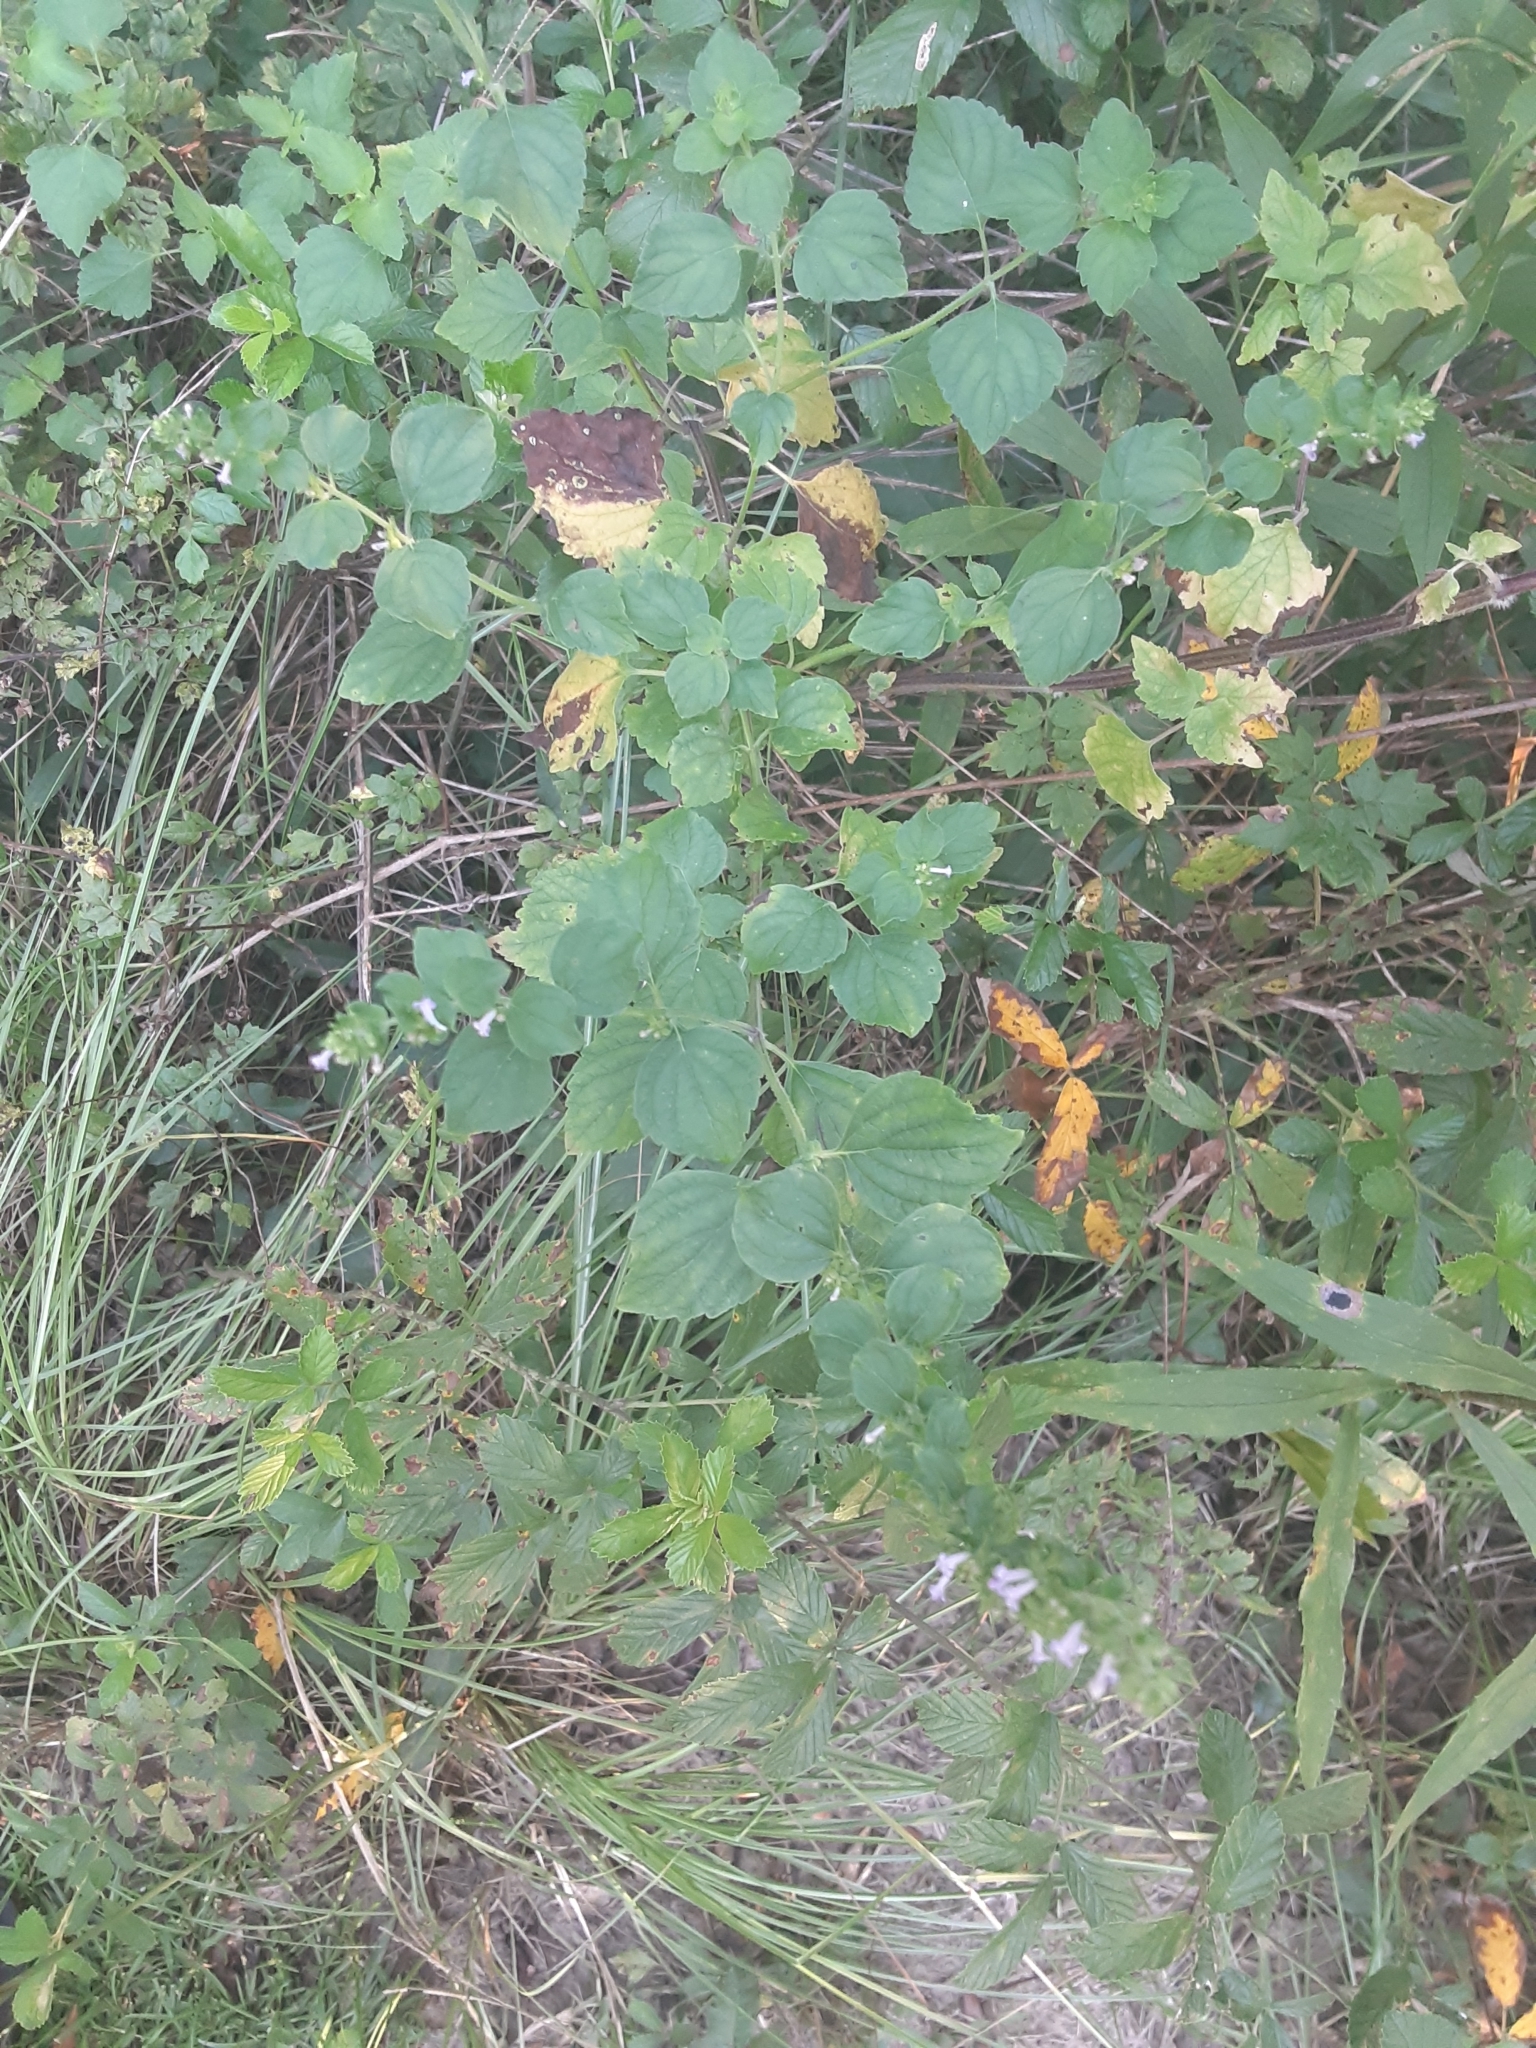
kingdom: Plantae
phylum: Tracheophyta
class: Magnoliopsida
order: Lamiales
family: Lamiaceae
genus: Cantinoa
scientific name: Cantinoa mutabilis
